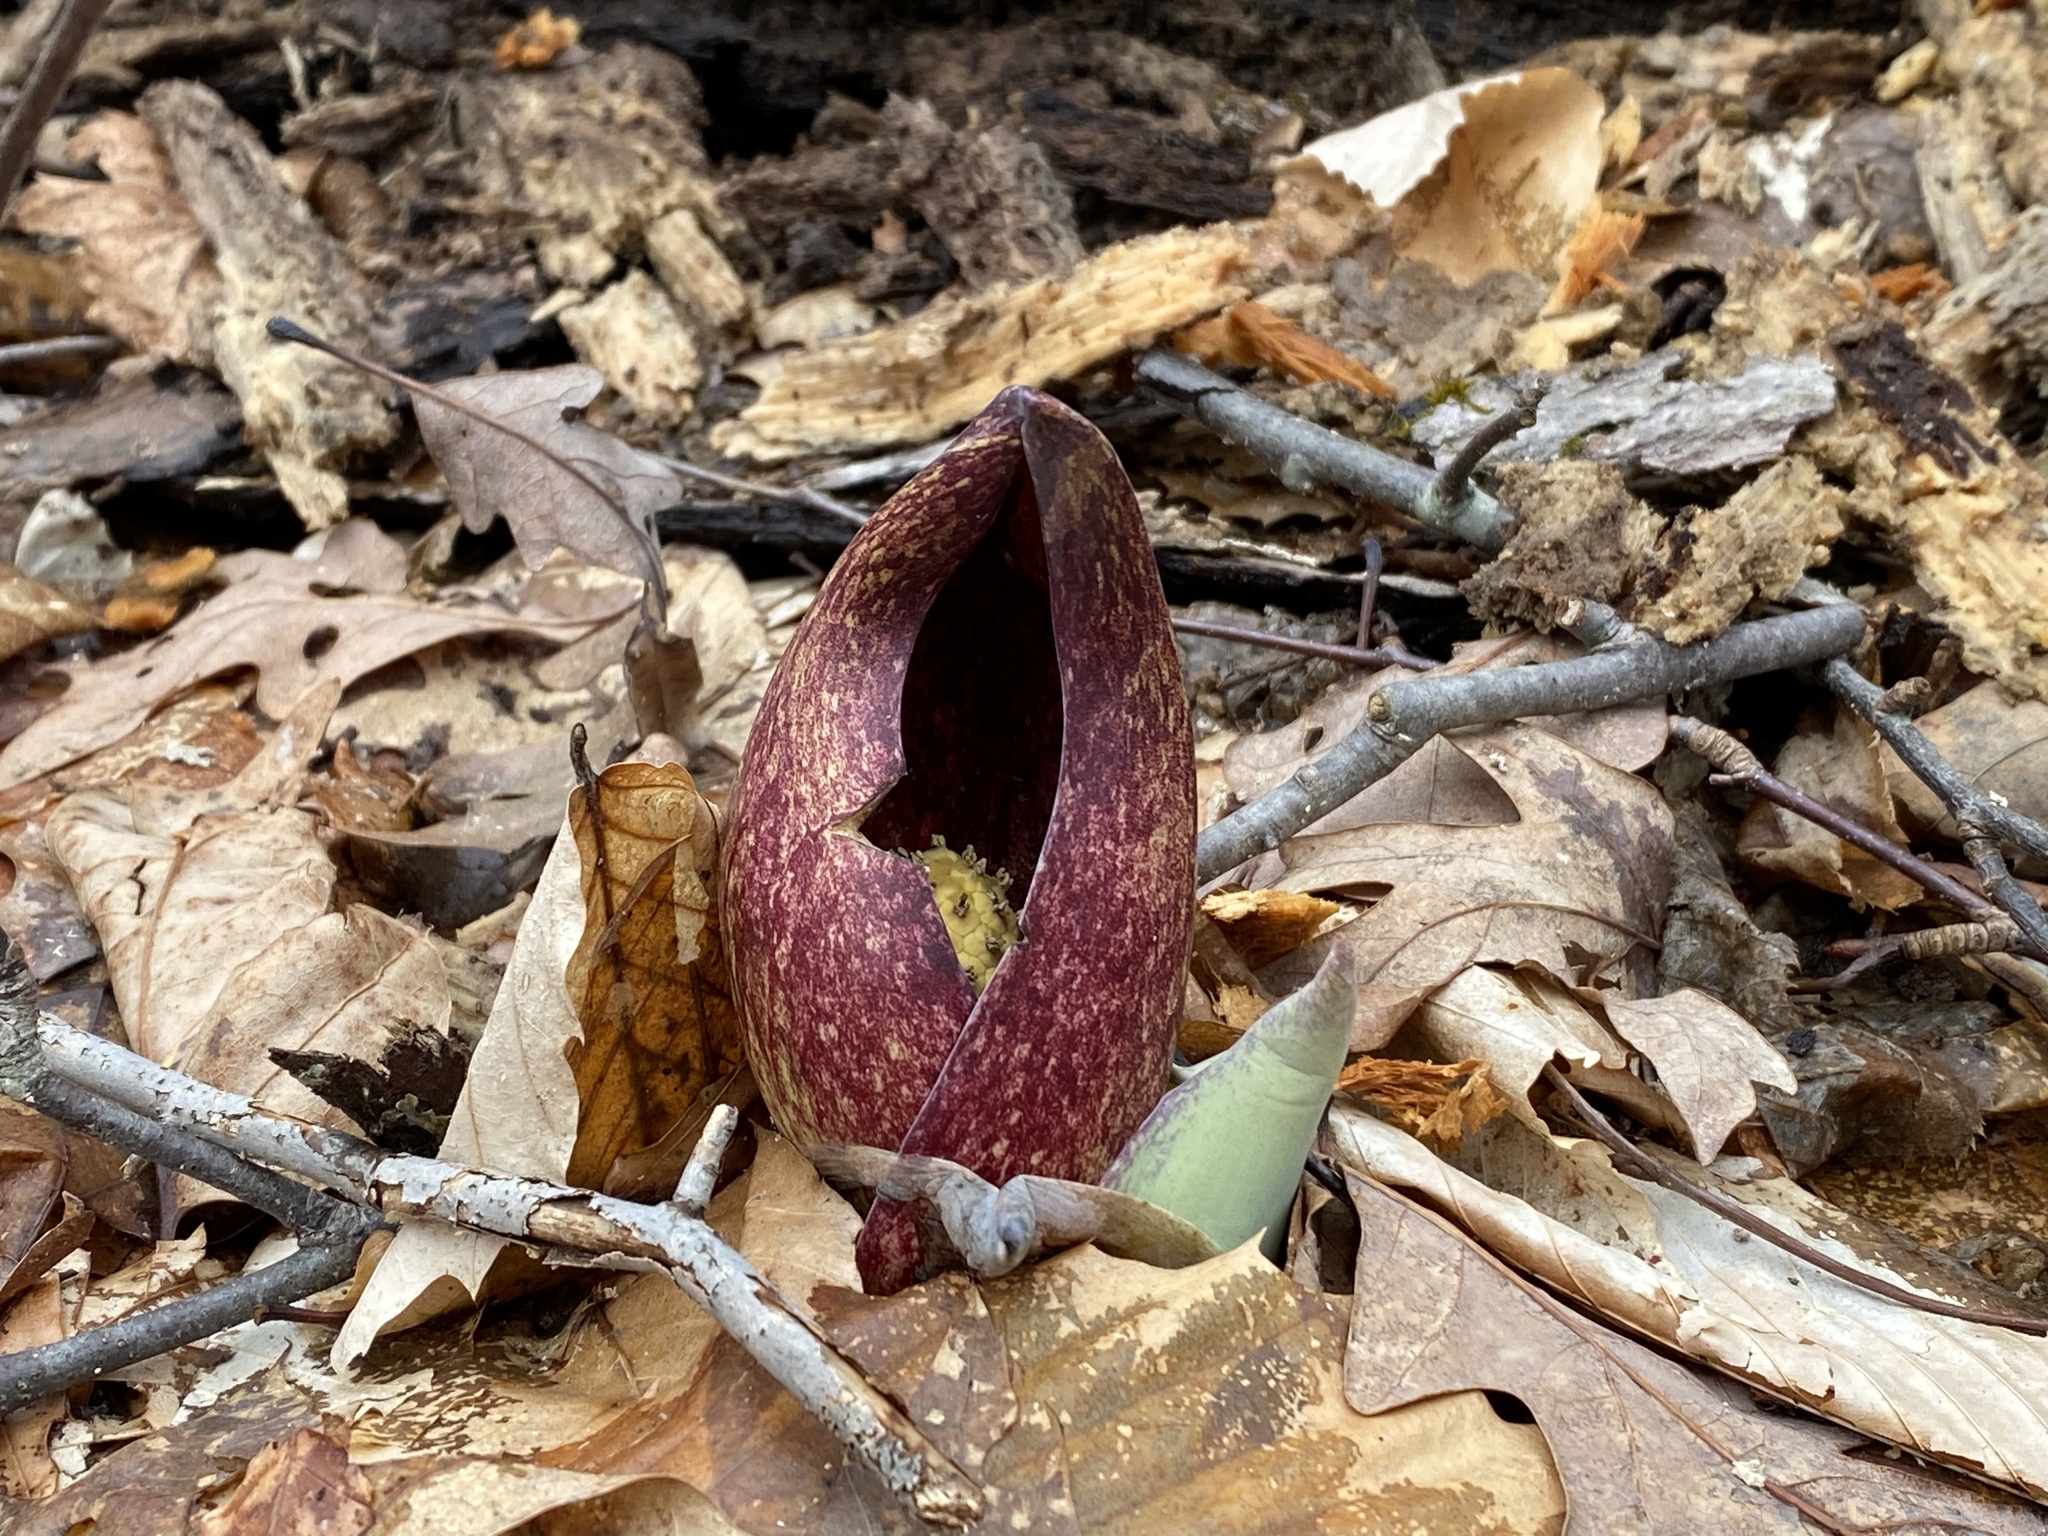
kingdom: Plantae
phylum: Tracheophyta
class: Liliopsida
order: Alismatales
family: Araceae
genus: Symplocarpus
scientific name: Symplocarpus foetidus
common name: Eastern skunk cabbage
